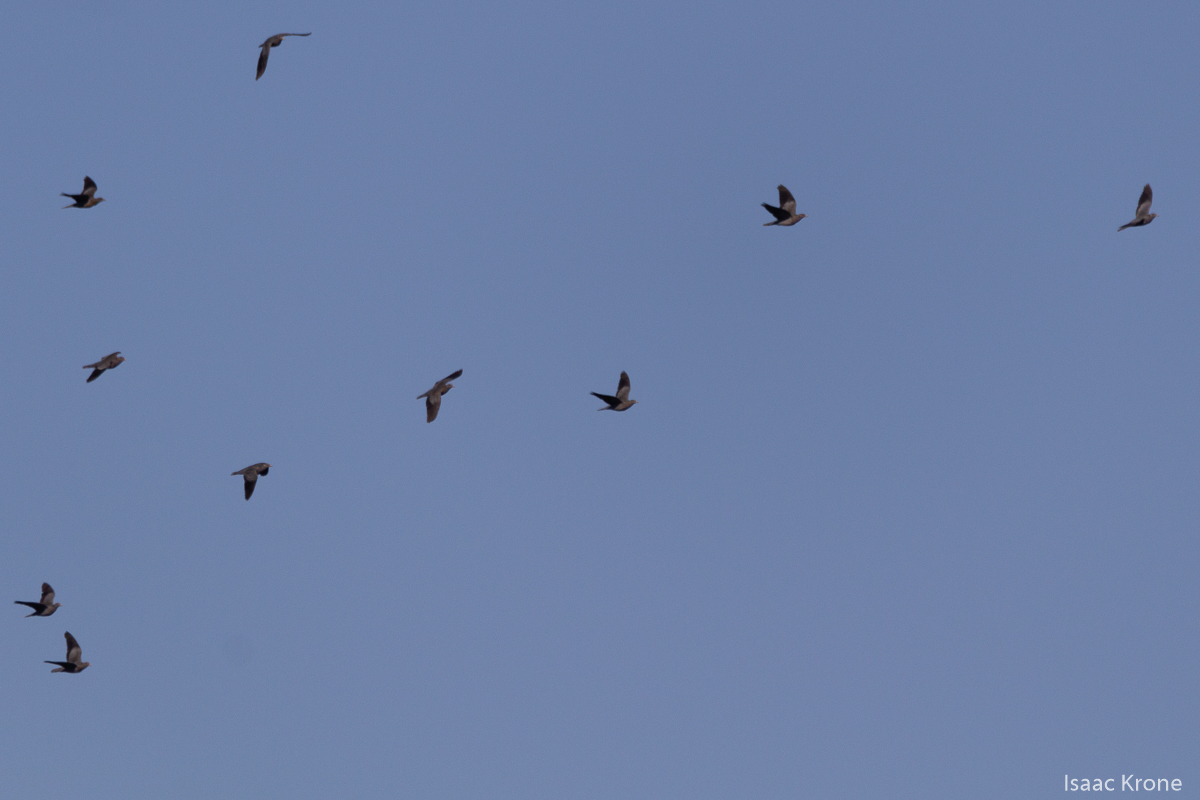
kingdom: Animalia
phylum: Chordata
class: Aves
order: Columbiformes
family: Columbidae
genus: Patagioenas
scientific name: Patagioenas fasciata
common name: Band-tailed pigeon
